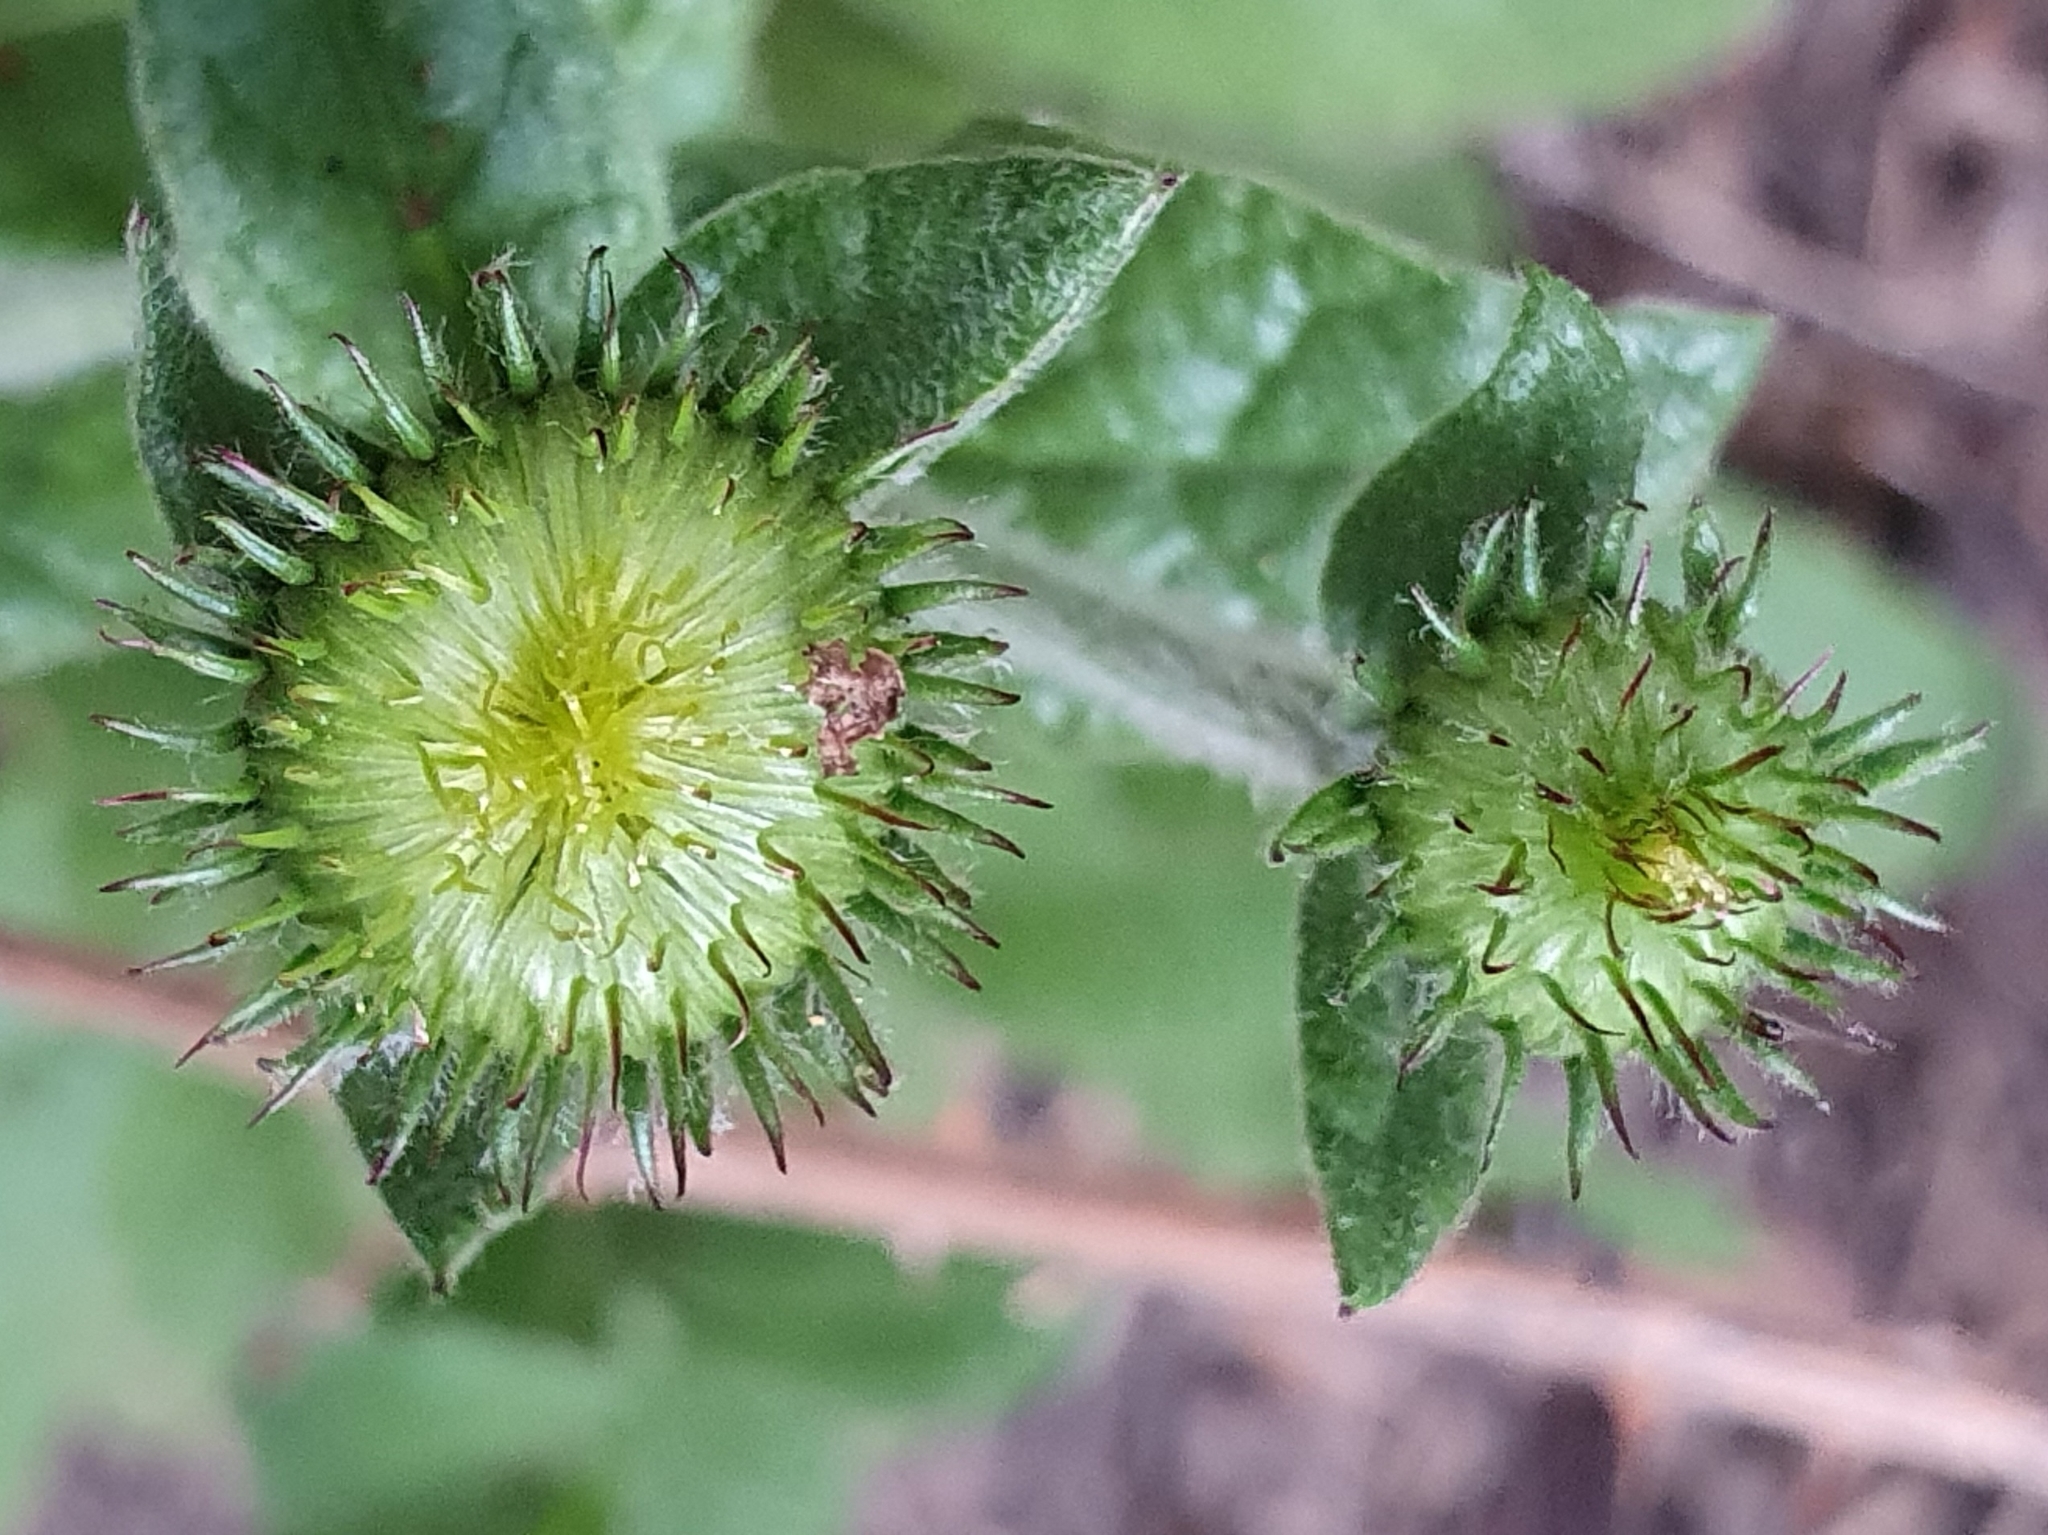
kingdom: Plantae
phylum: Tracheophyta
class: Magnoliopsida
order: Asterales
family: Asteraceae
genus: Pulicaria
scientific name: Pulicaria odora
